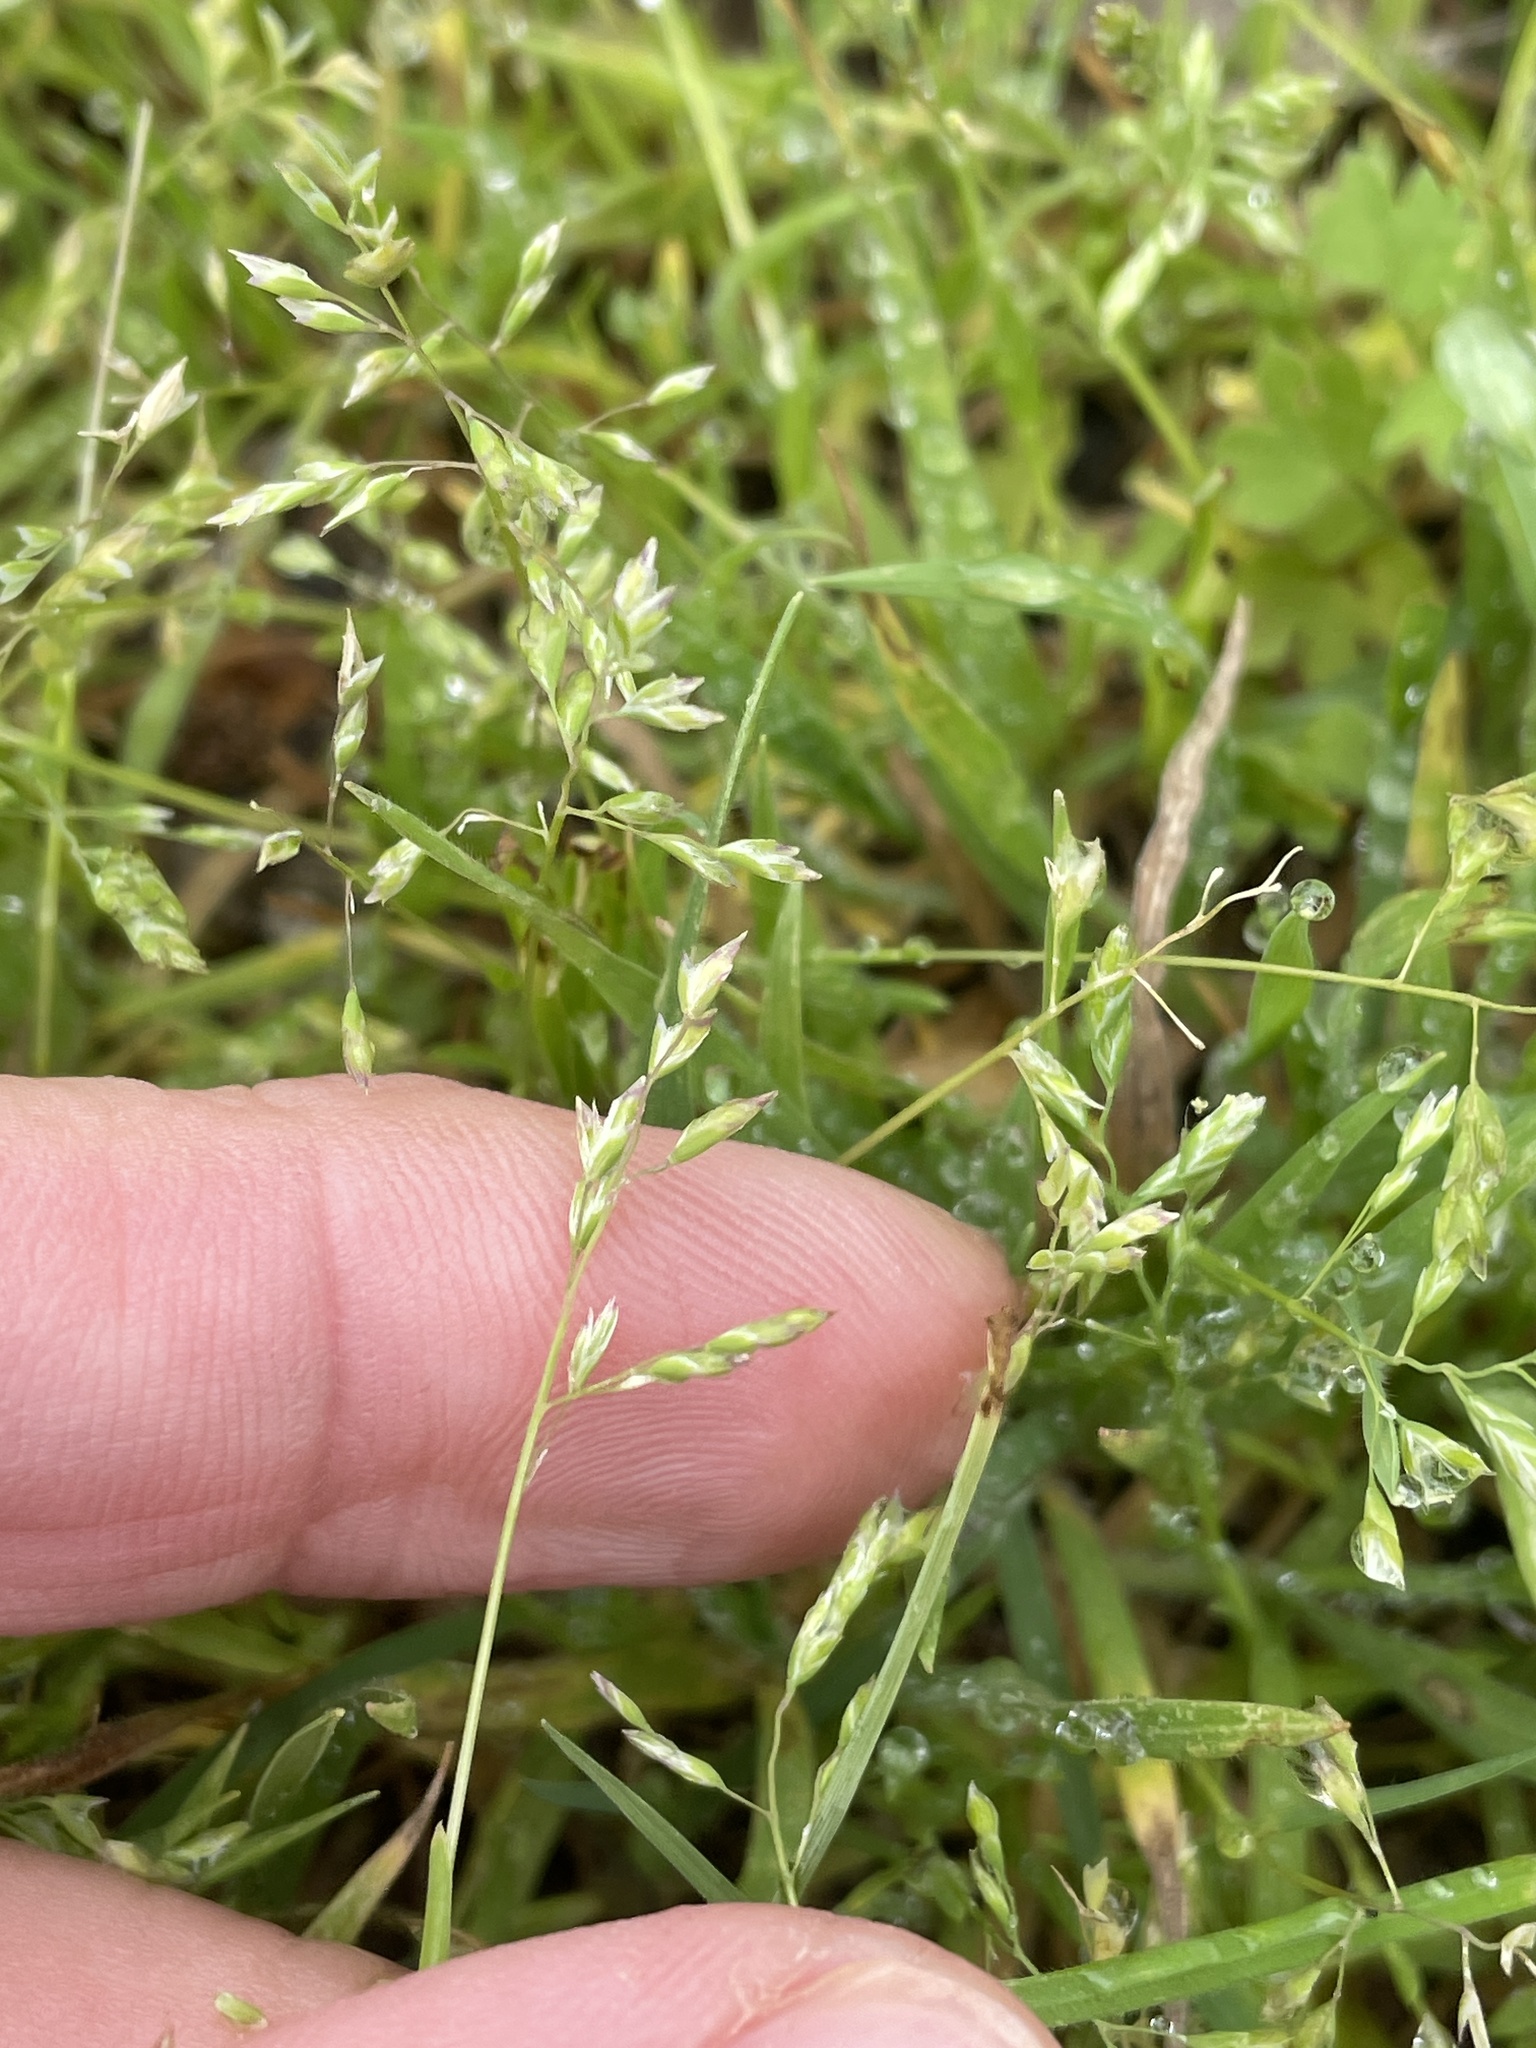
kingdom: Plantae
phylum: Tracheophyta
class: Liliopsida
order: Poales
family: Poaceae
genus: Poa
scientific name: Poa annua
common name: Annual bluegrass
